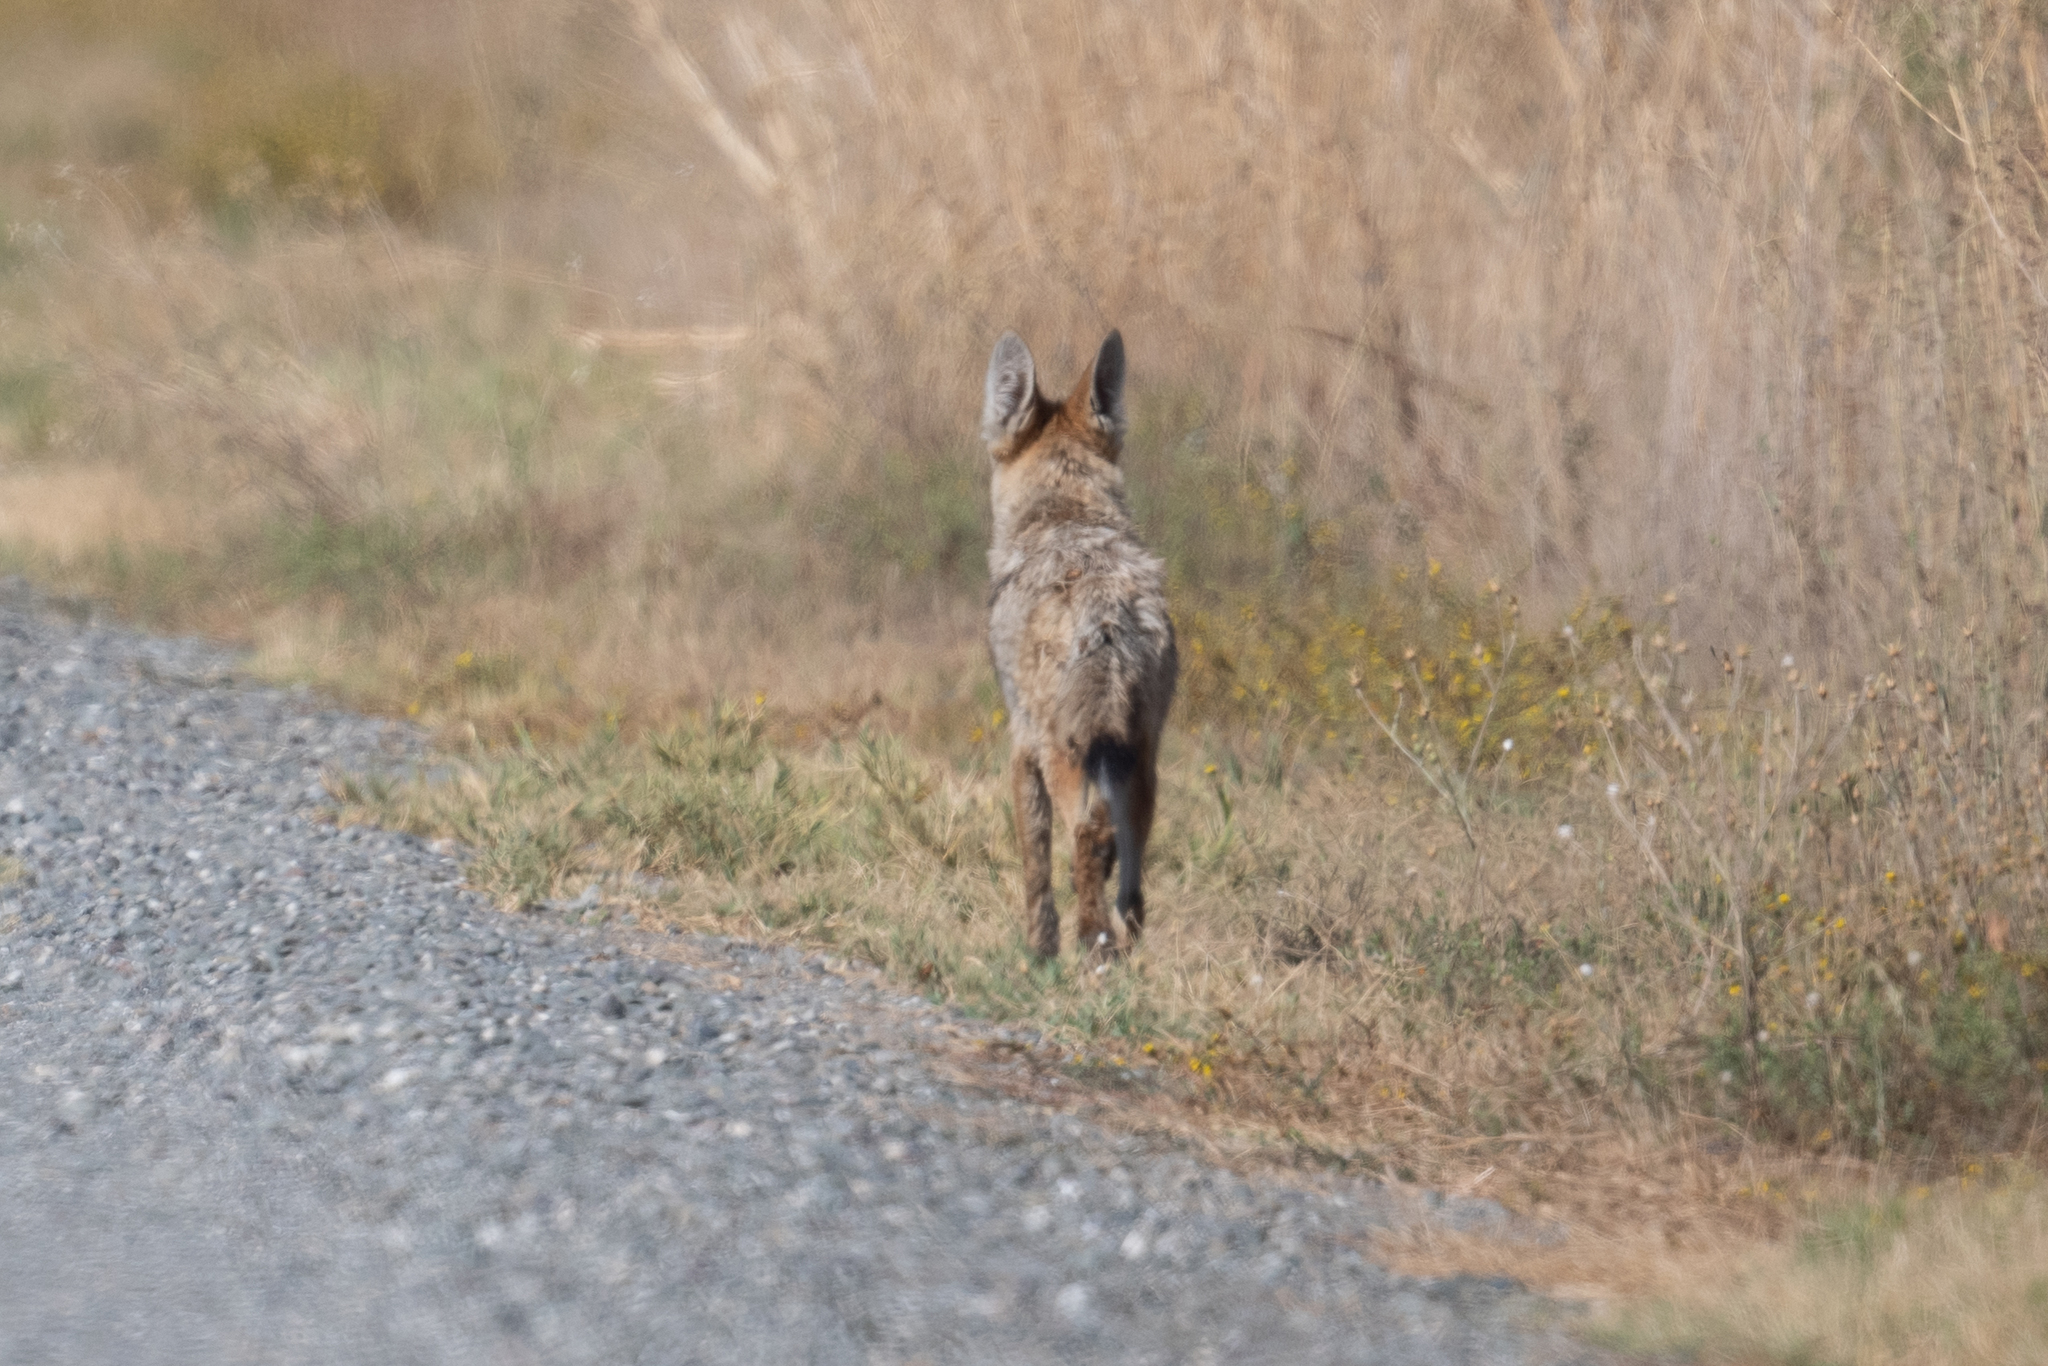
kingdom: Animalia
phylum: Chordata
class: Mammalia
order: Carnivora
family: Canidae
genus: Canis
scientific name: Canis latrans
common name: Coyote
